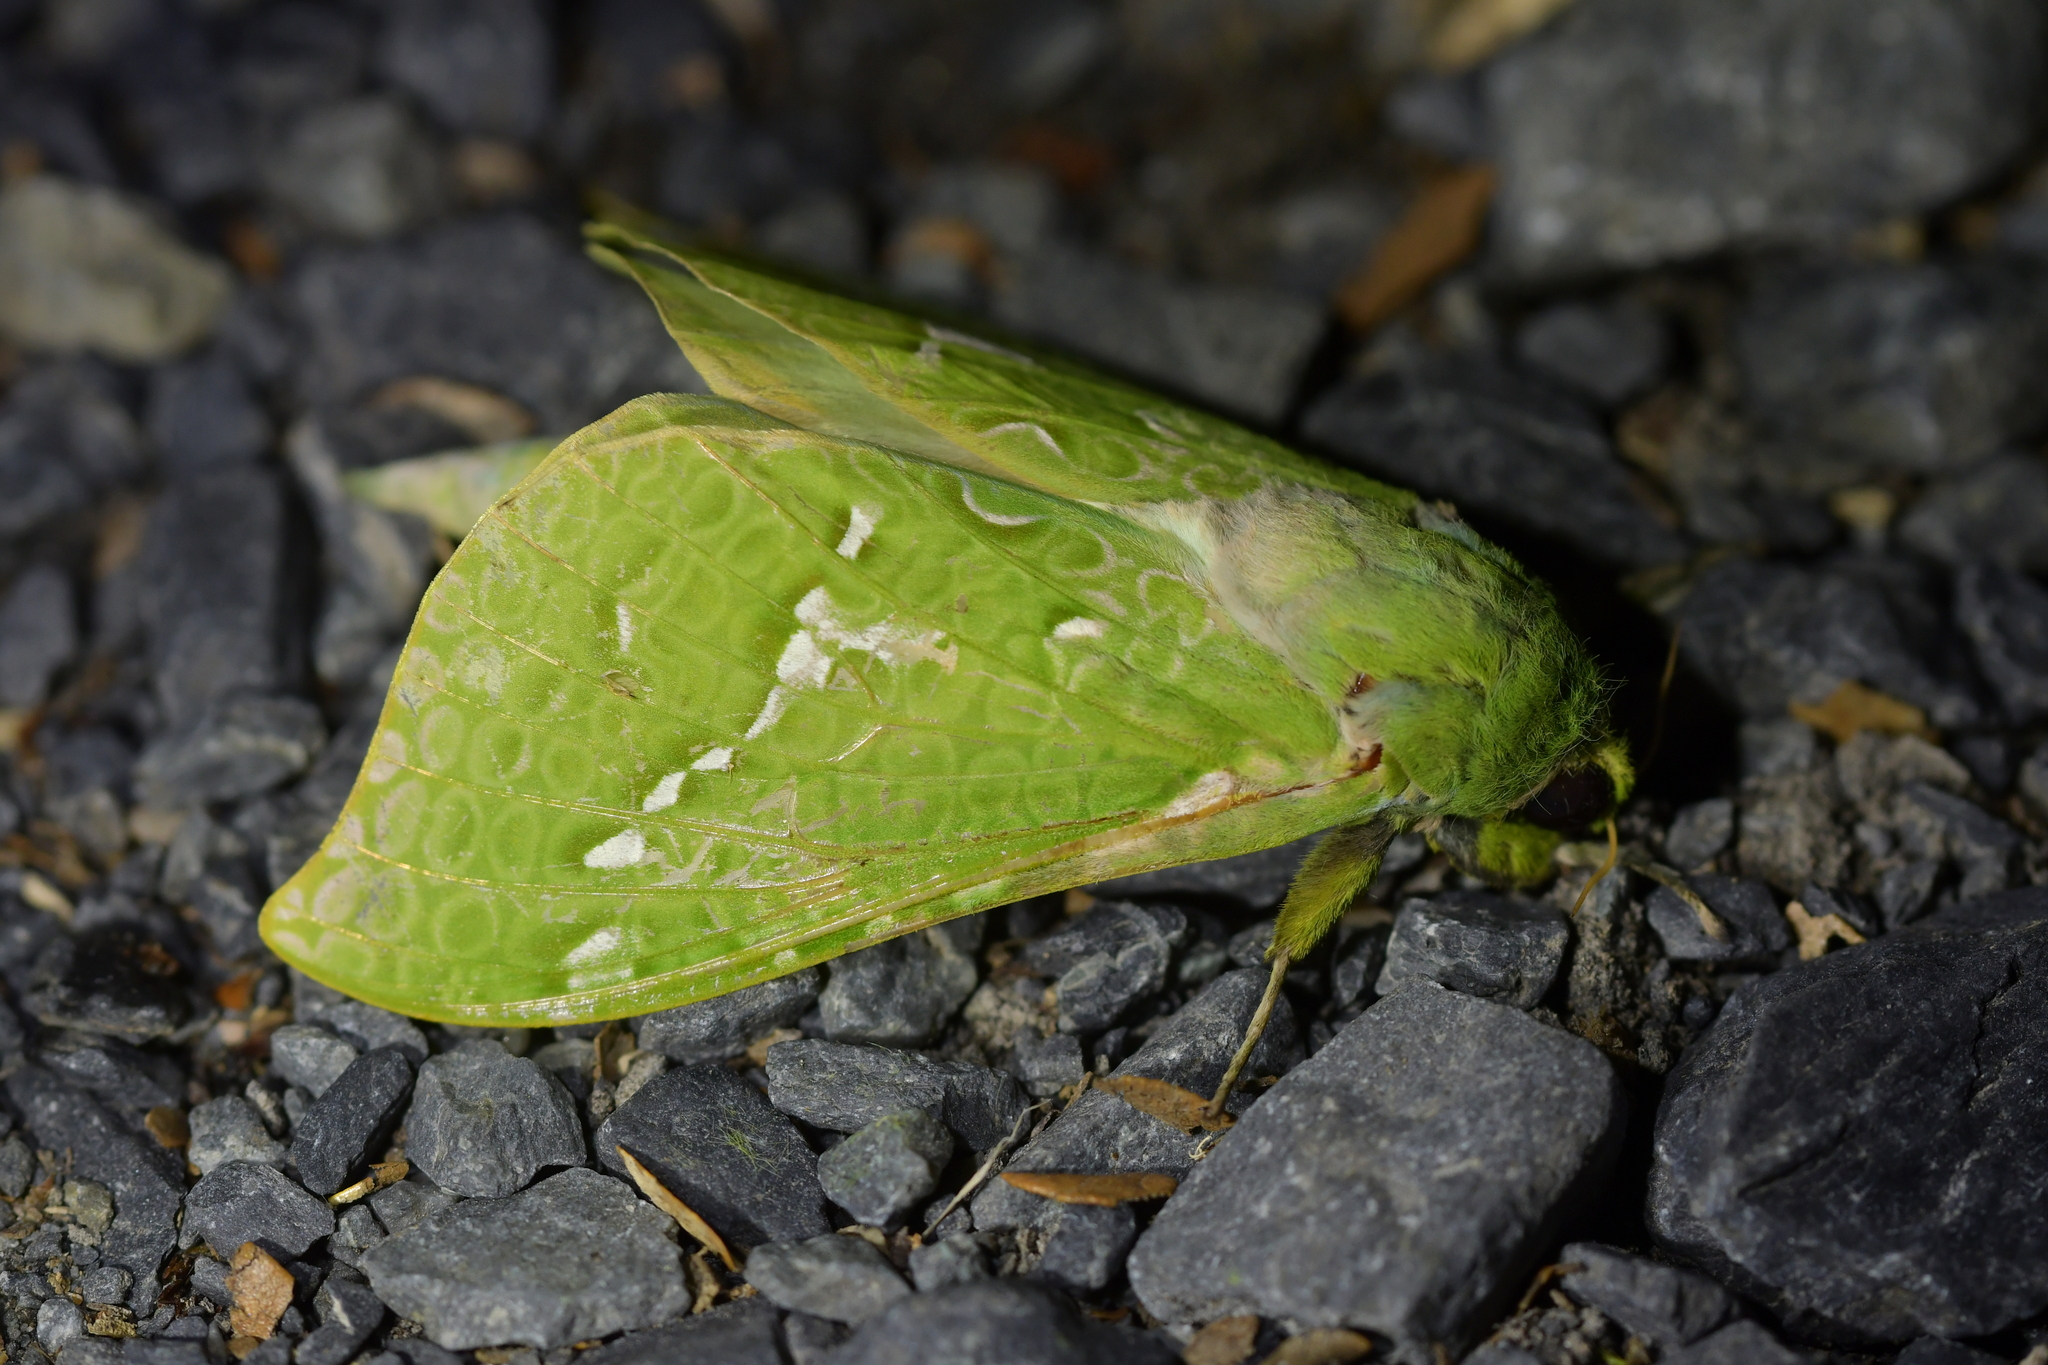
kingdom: Animalia
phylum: Arthropoda
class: Insecta
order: Lepidoptera
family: Hepialidae
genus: Aenetus
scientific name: Aenetus virescens
